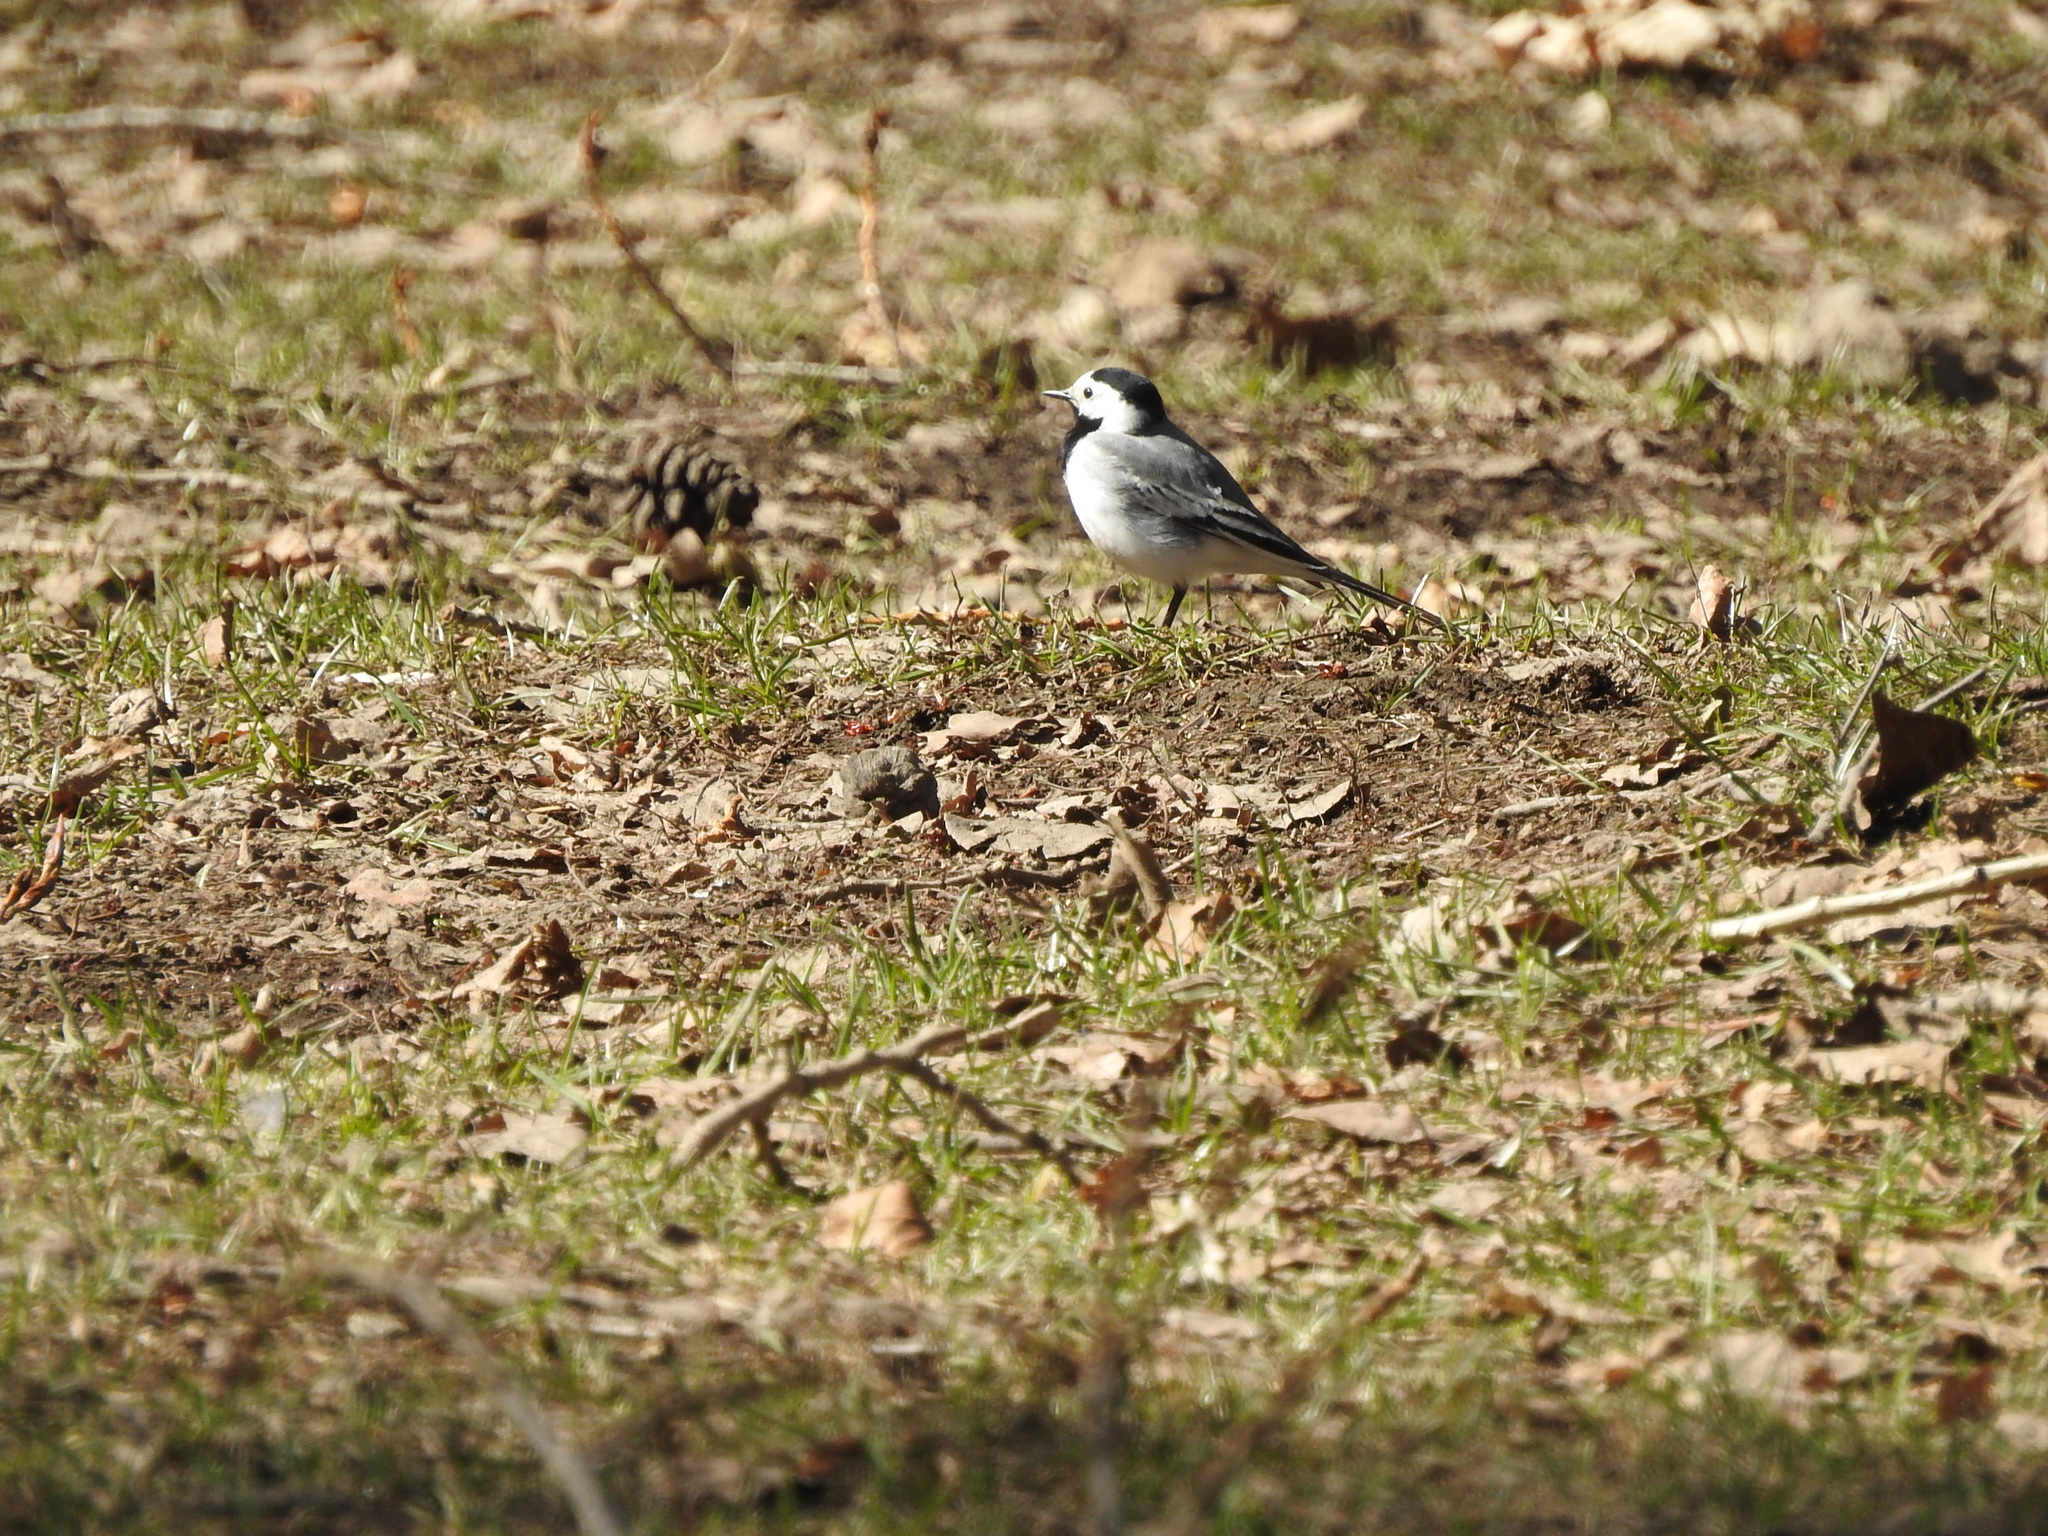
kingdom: Animalia
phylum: Chordata
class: Aves
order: Passeriformes
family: Motacillidae
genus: Motacilla
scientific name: Motacilla alba
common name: White wagtail
